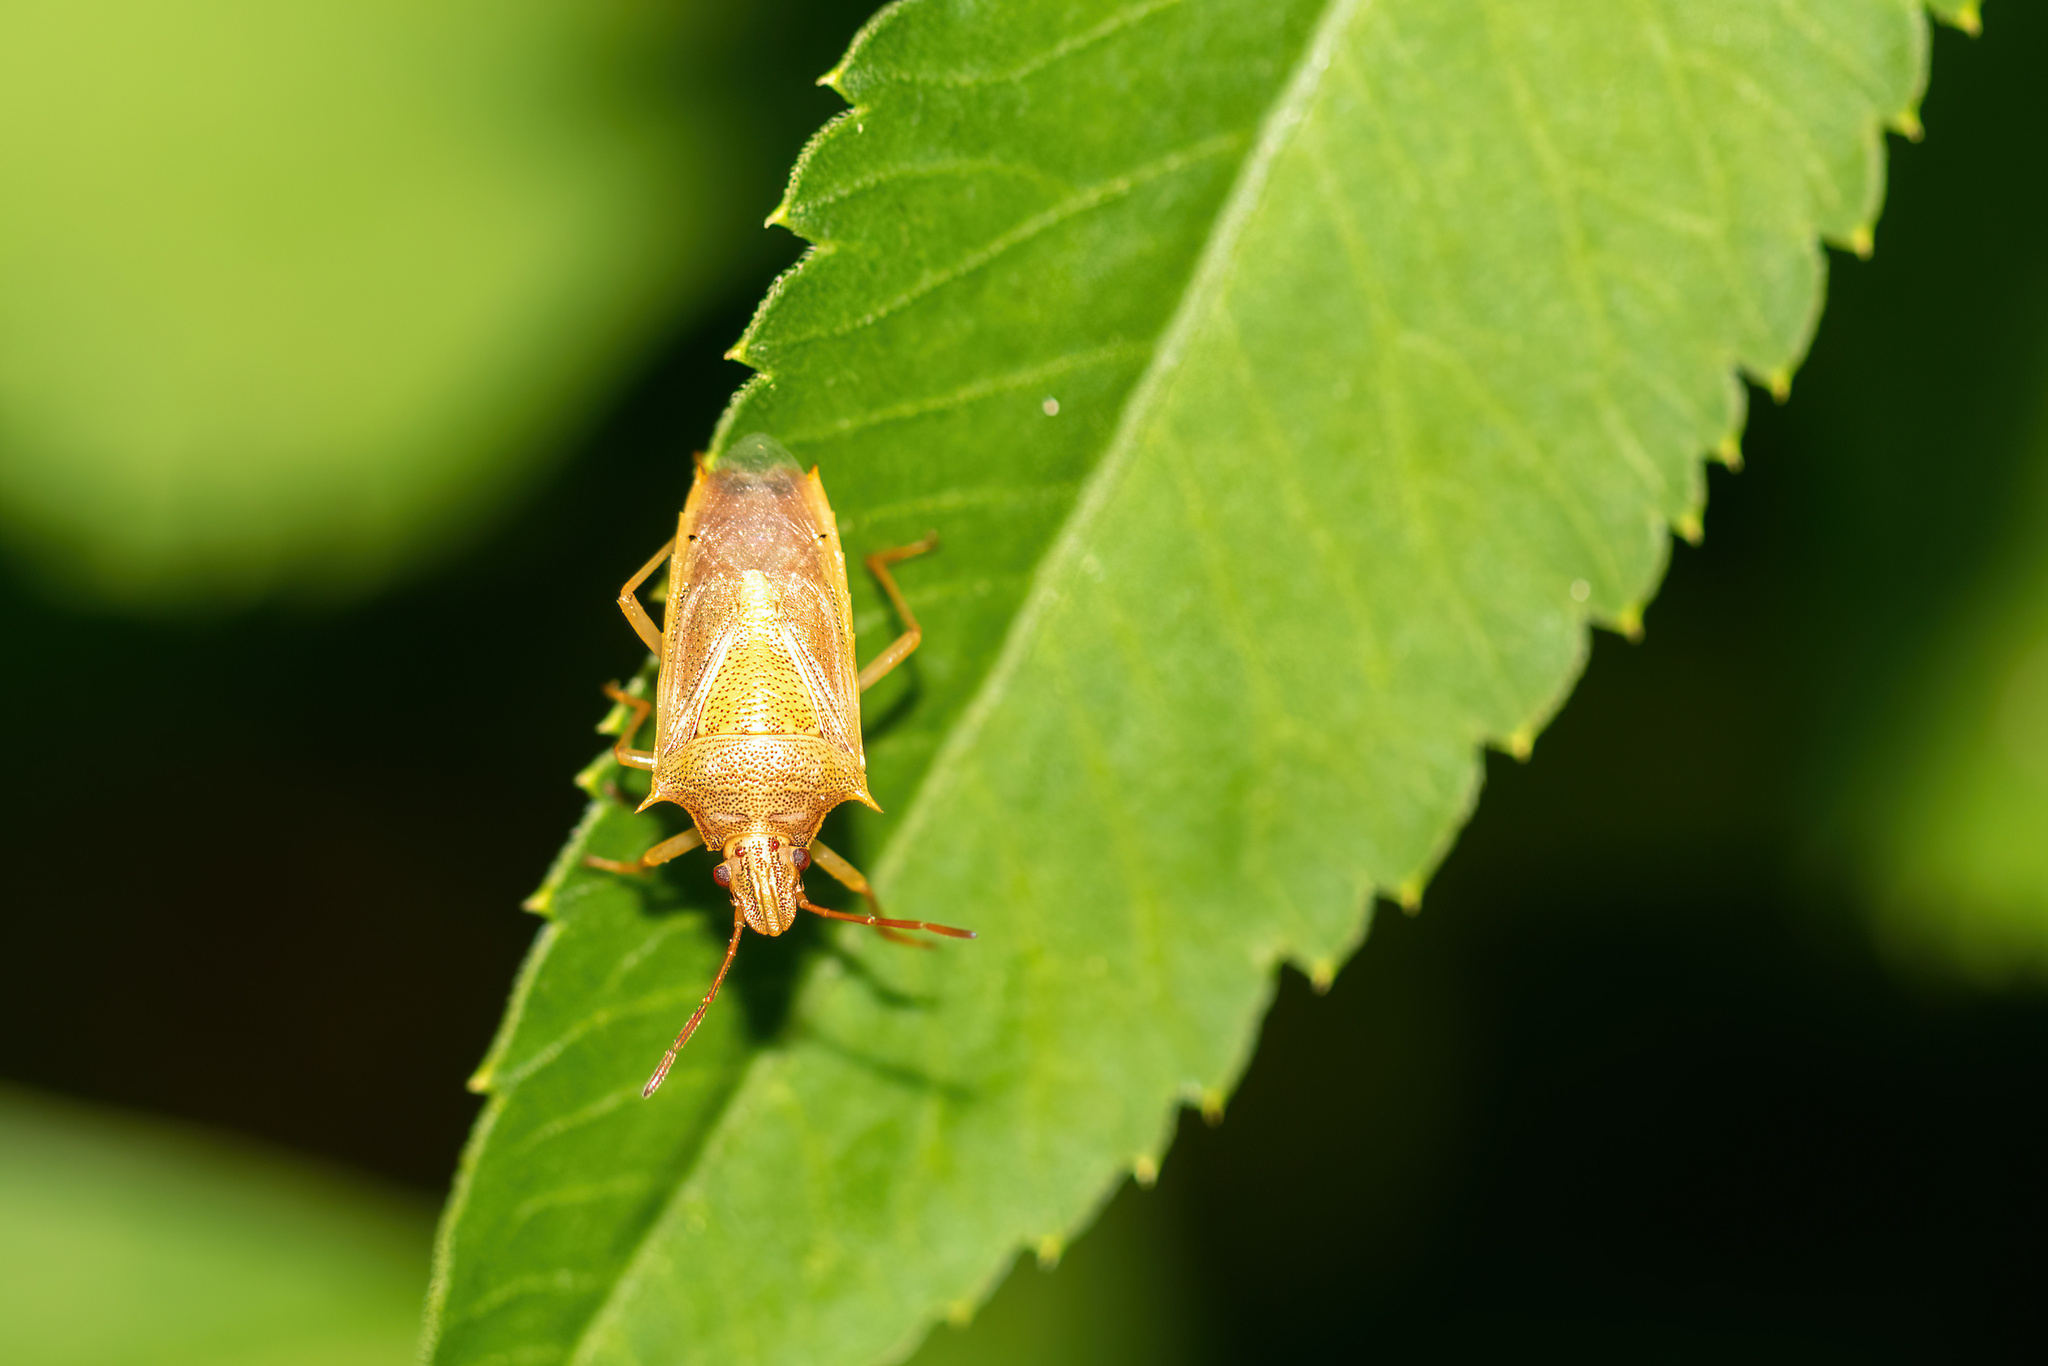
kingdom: Animalia
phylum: Arthropoda
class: Insecta
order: Hemiptera
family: Pentatomidae
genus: Oebalus
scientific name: Oebalus pugnax
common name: Rice stink bug
